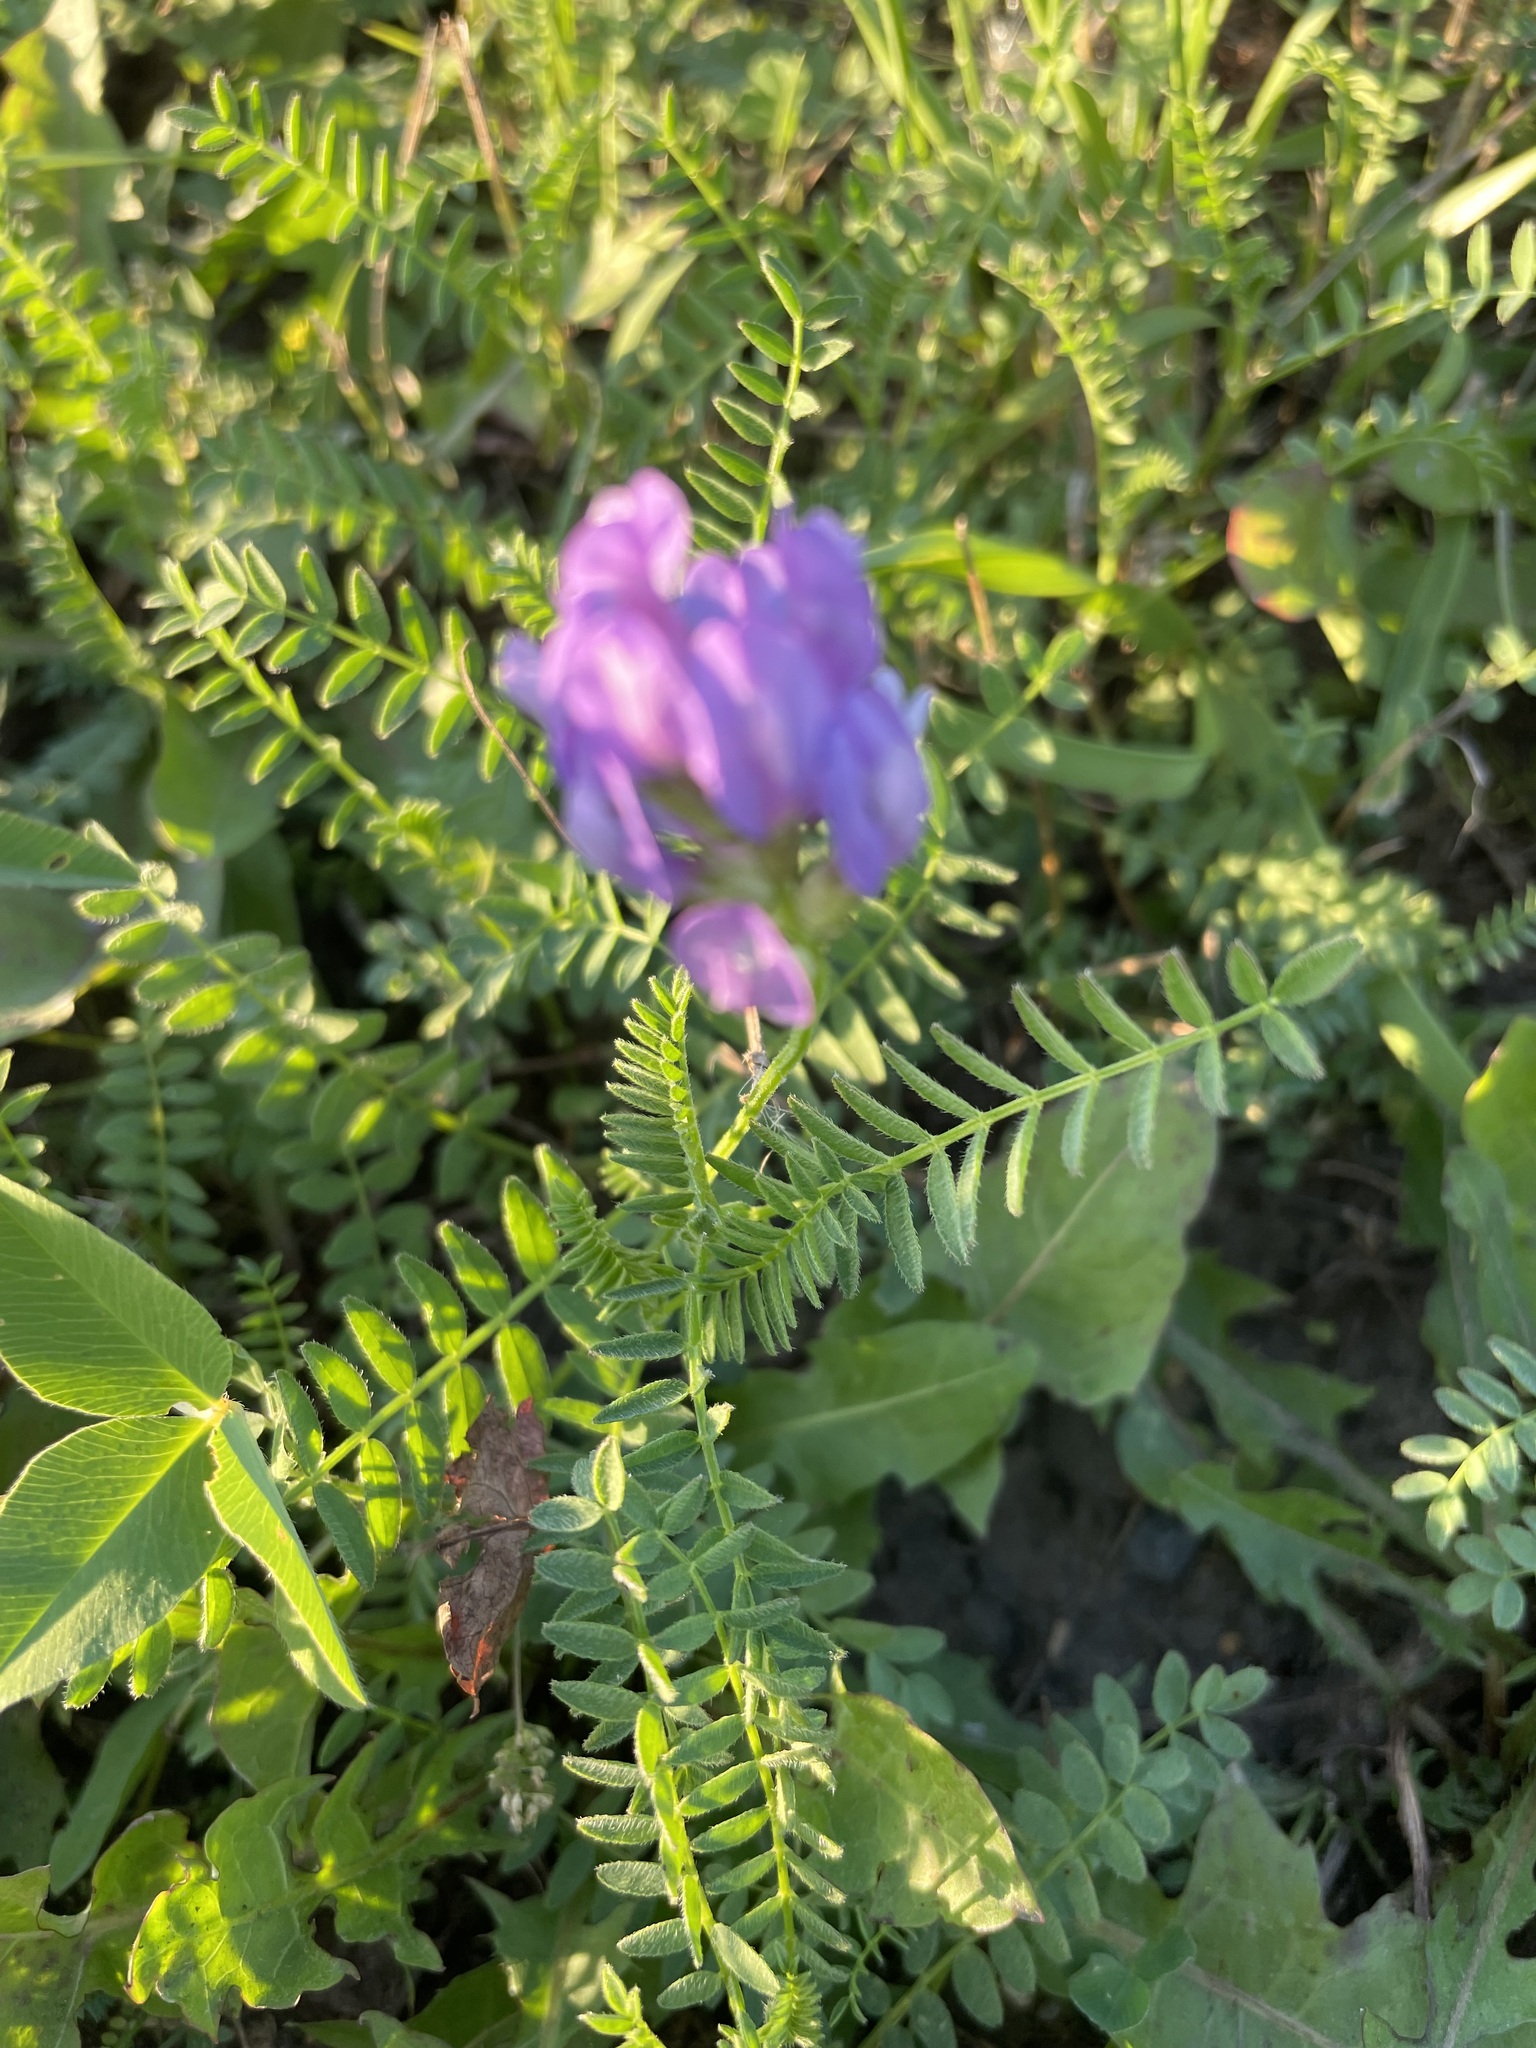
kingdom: Plantae
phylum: Tracheophyta
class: Magnoliopsida
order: Fabales
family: Fabaceae
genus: Astragalus
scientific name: Astragalus danicus
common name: Purple milk-vetch
